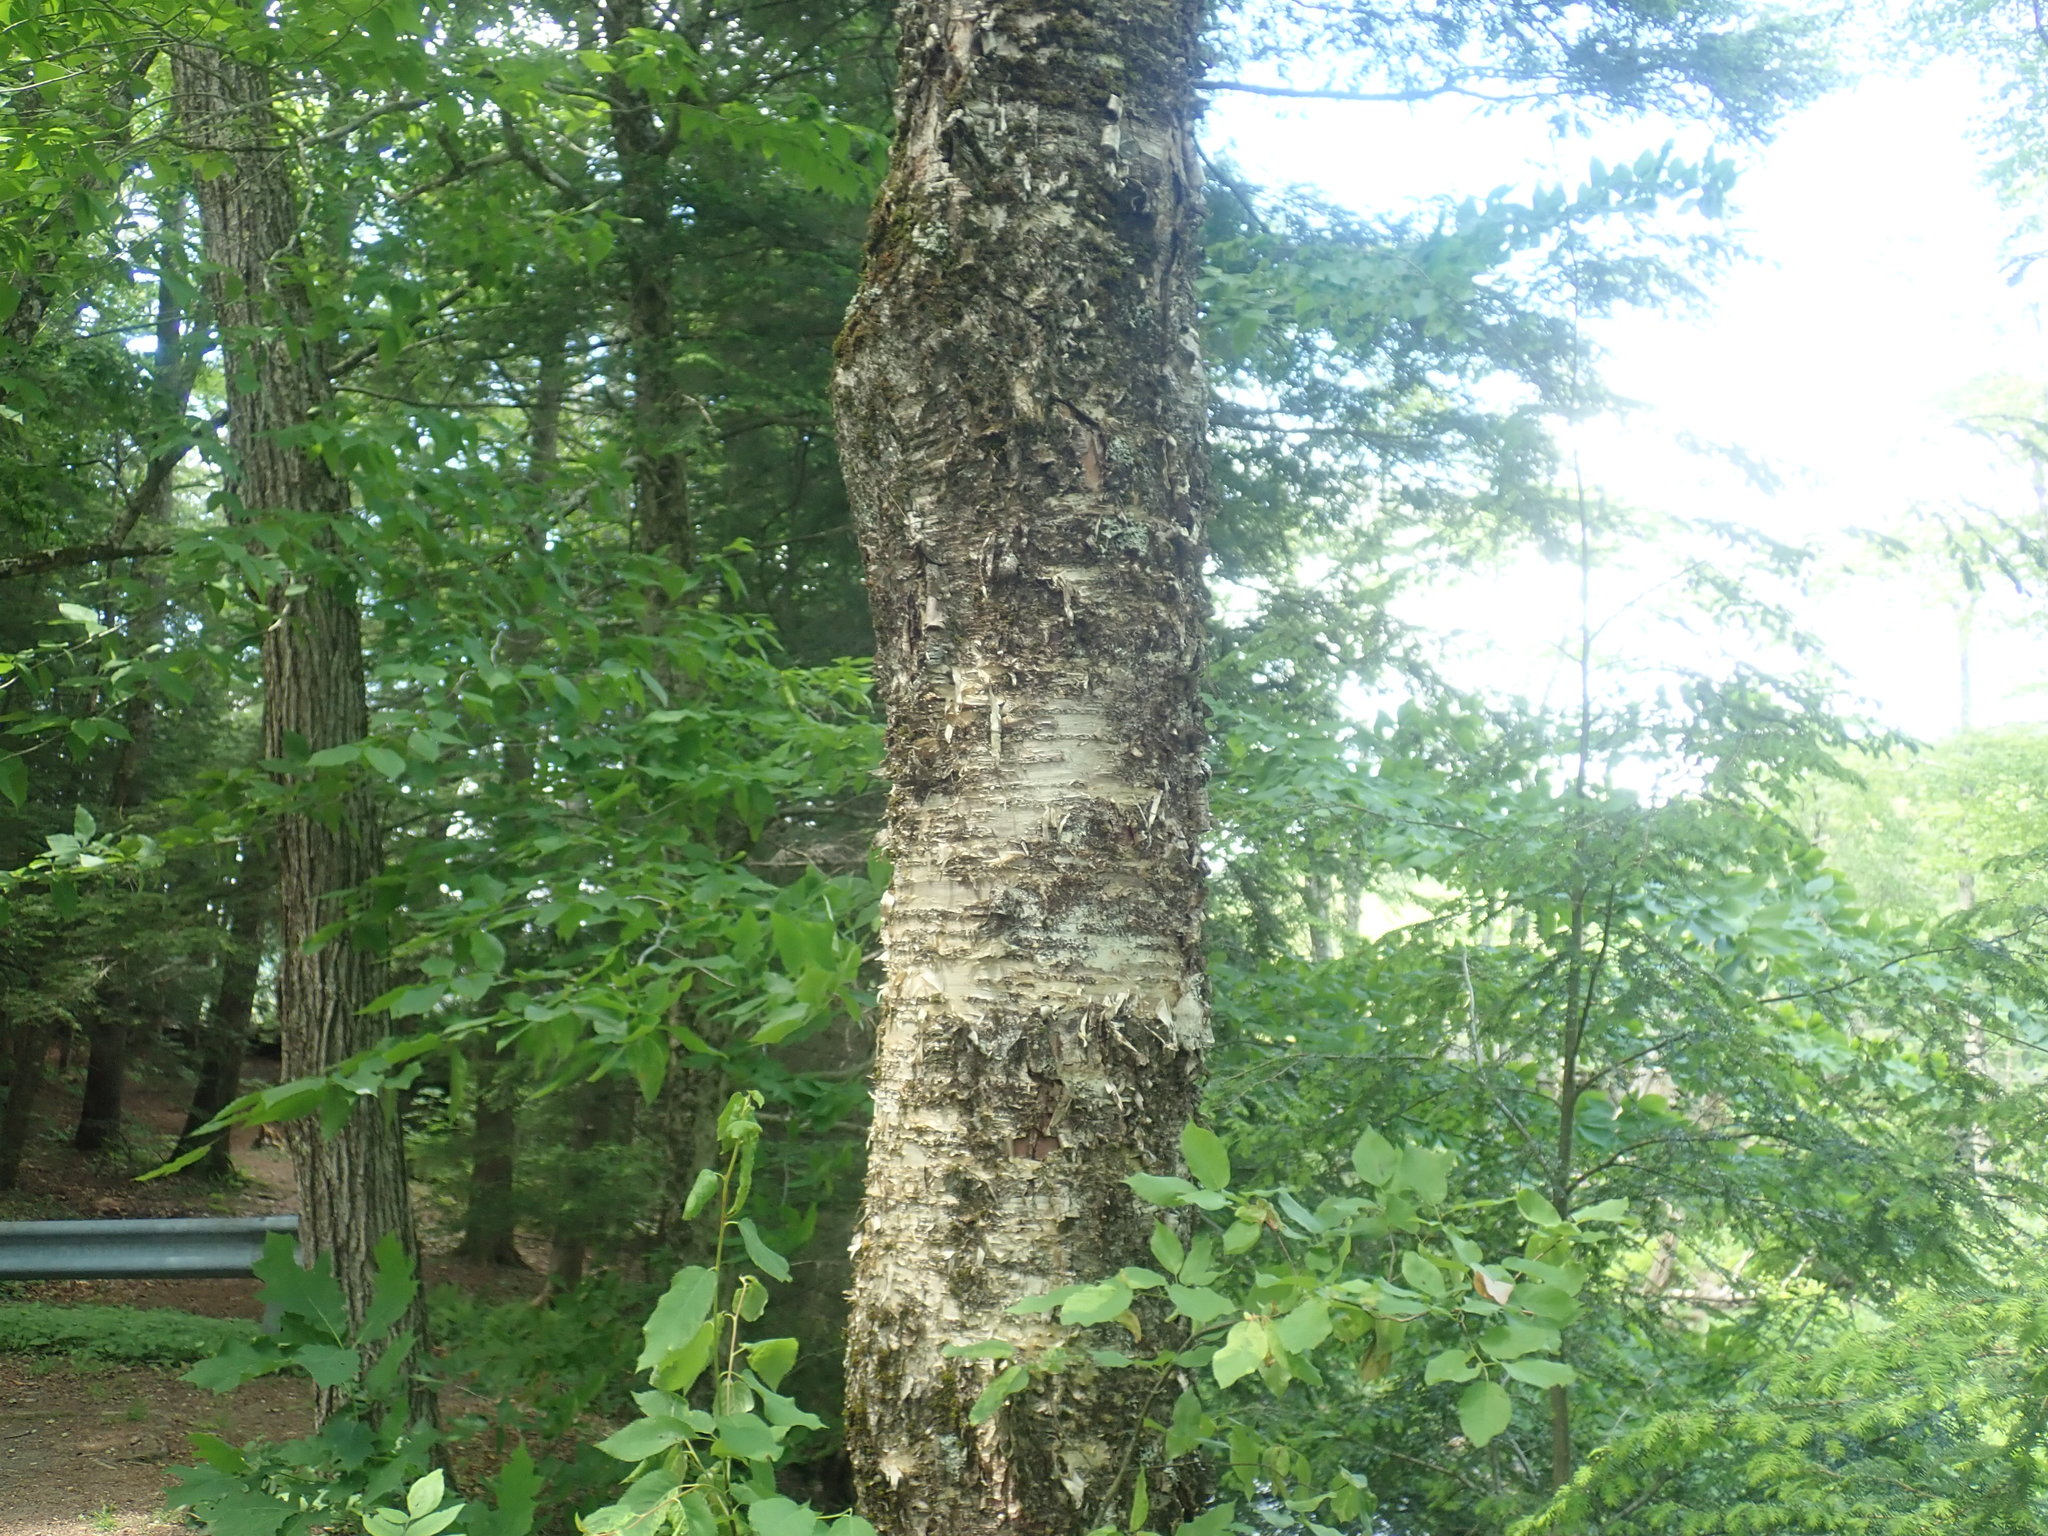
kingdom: Plantae
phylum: Tracheophyta
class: Magnoliopsida
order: Fagales
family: Betulaceae
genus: Betula
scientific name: Betula alleghaniensis
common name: Yellow birch
